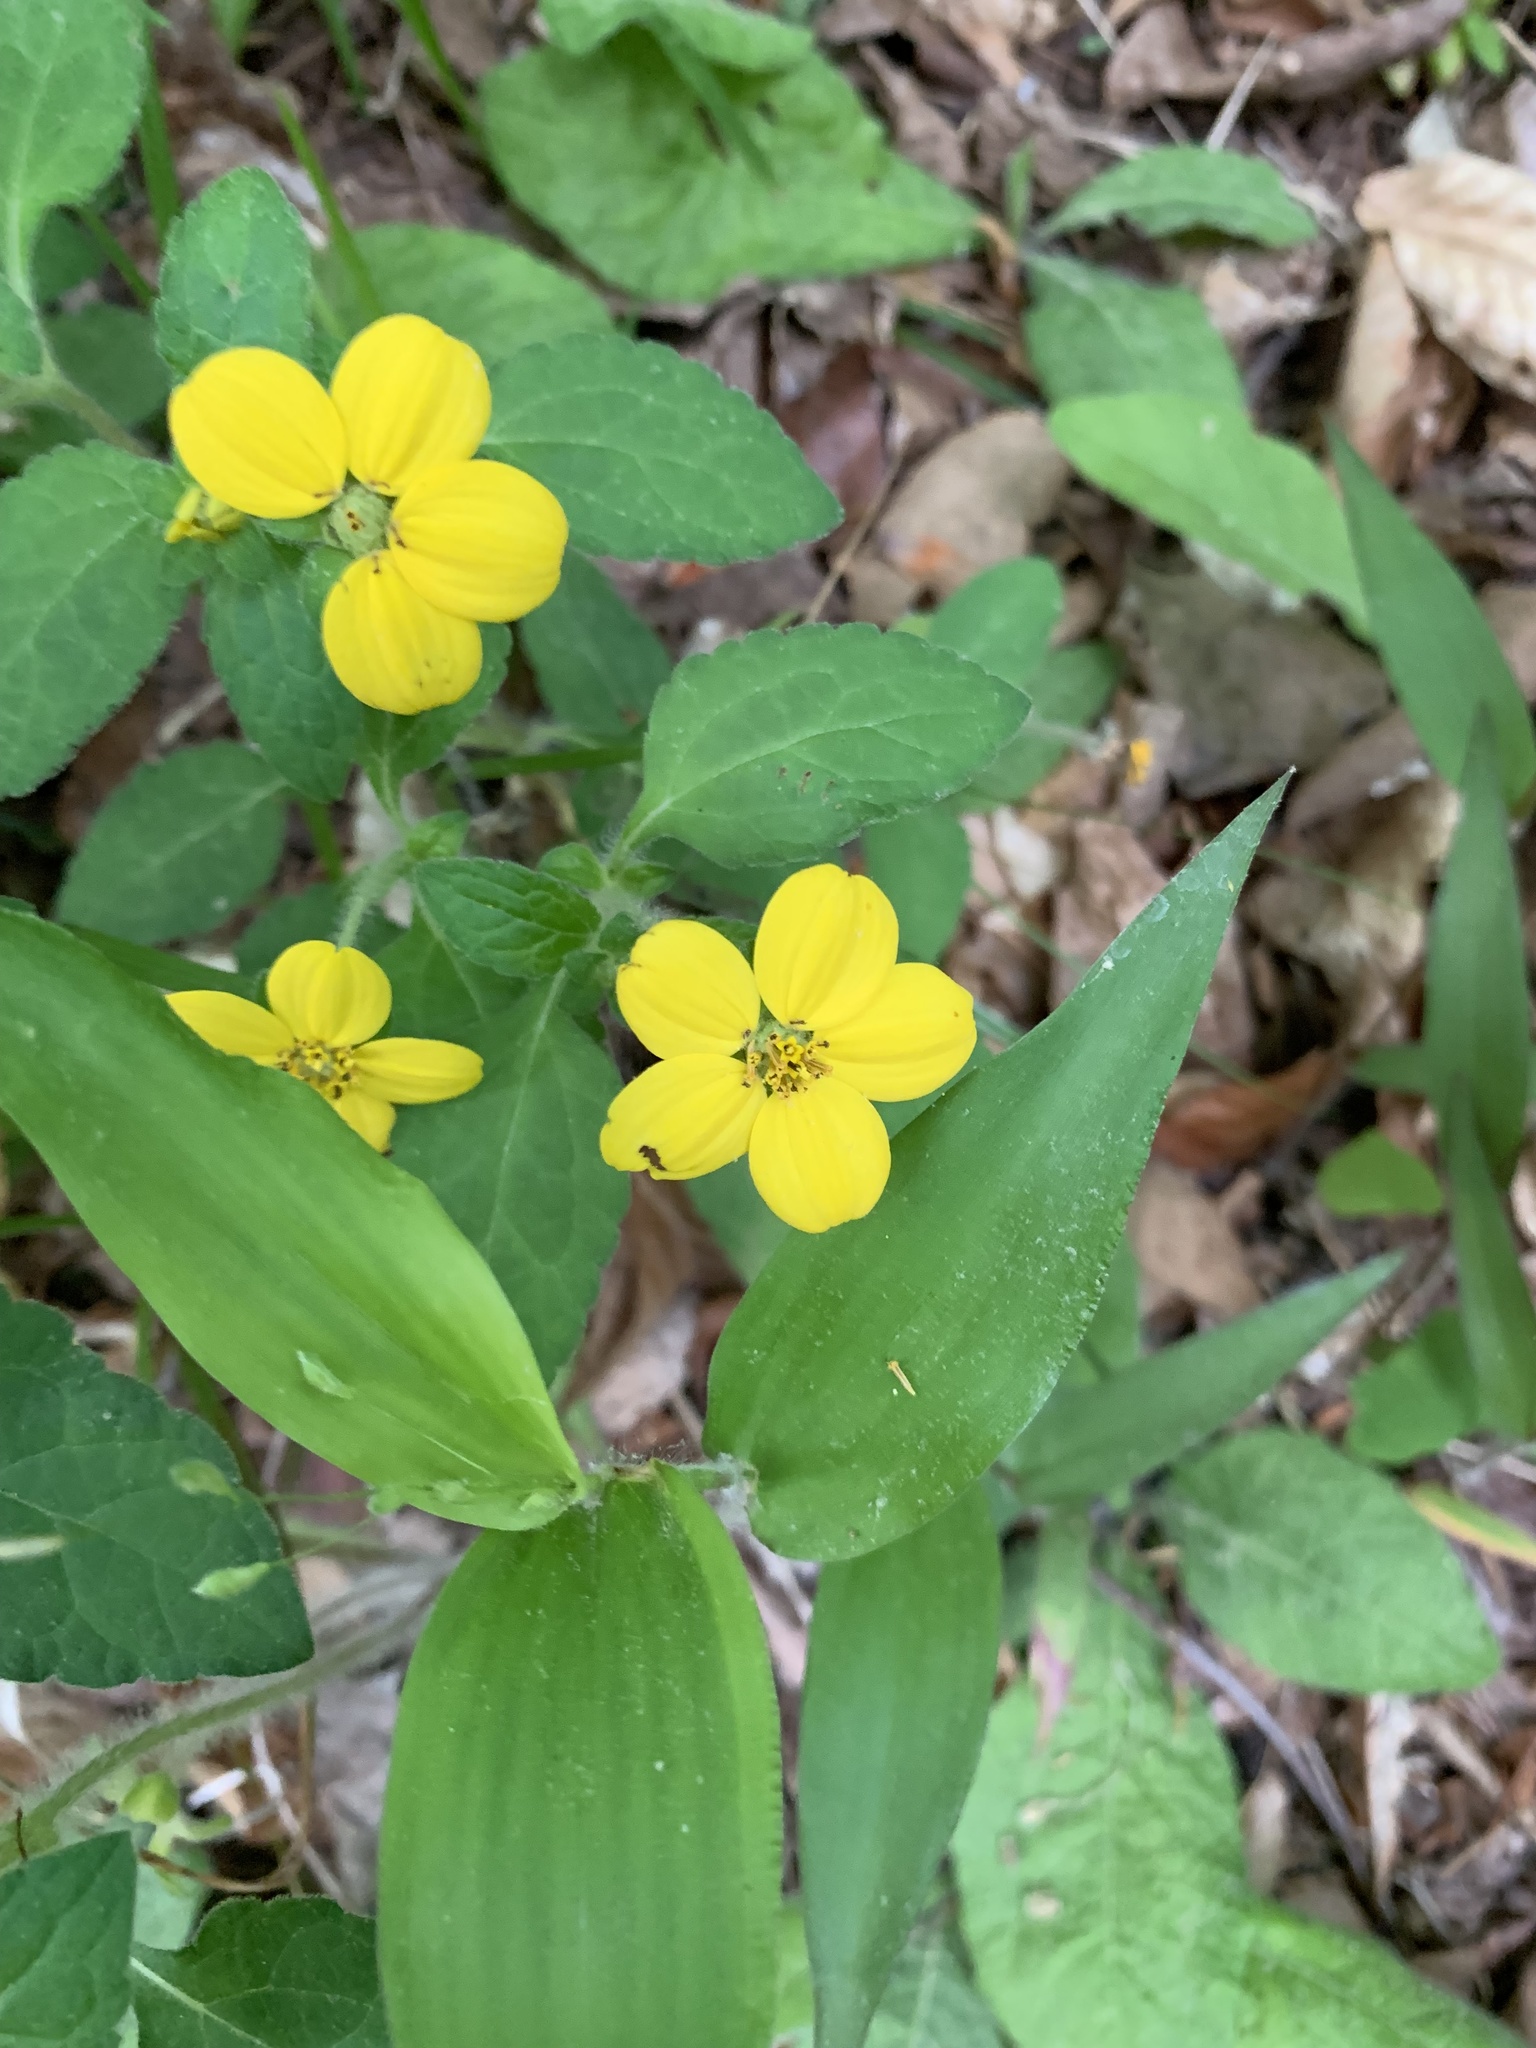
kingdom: Plantae
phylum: Tracheophyta
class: Magnoliopsida
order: Asterales
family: Asteraceae
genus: Chrysogonum
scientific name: Chrysogonum virginianum
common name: Golden-knee
